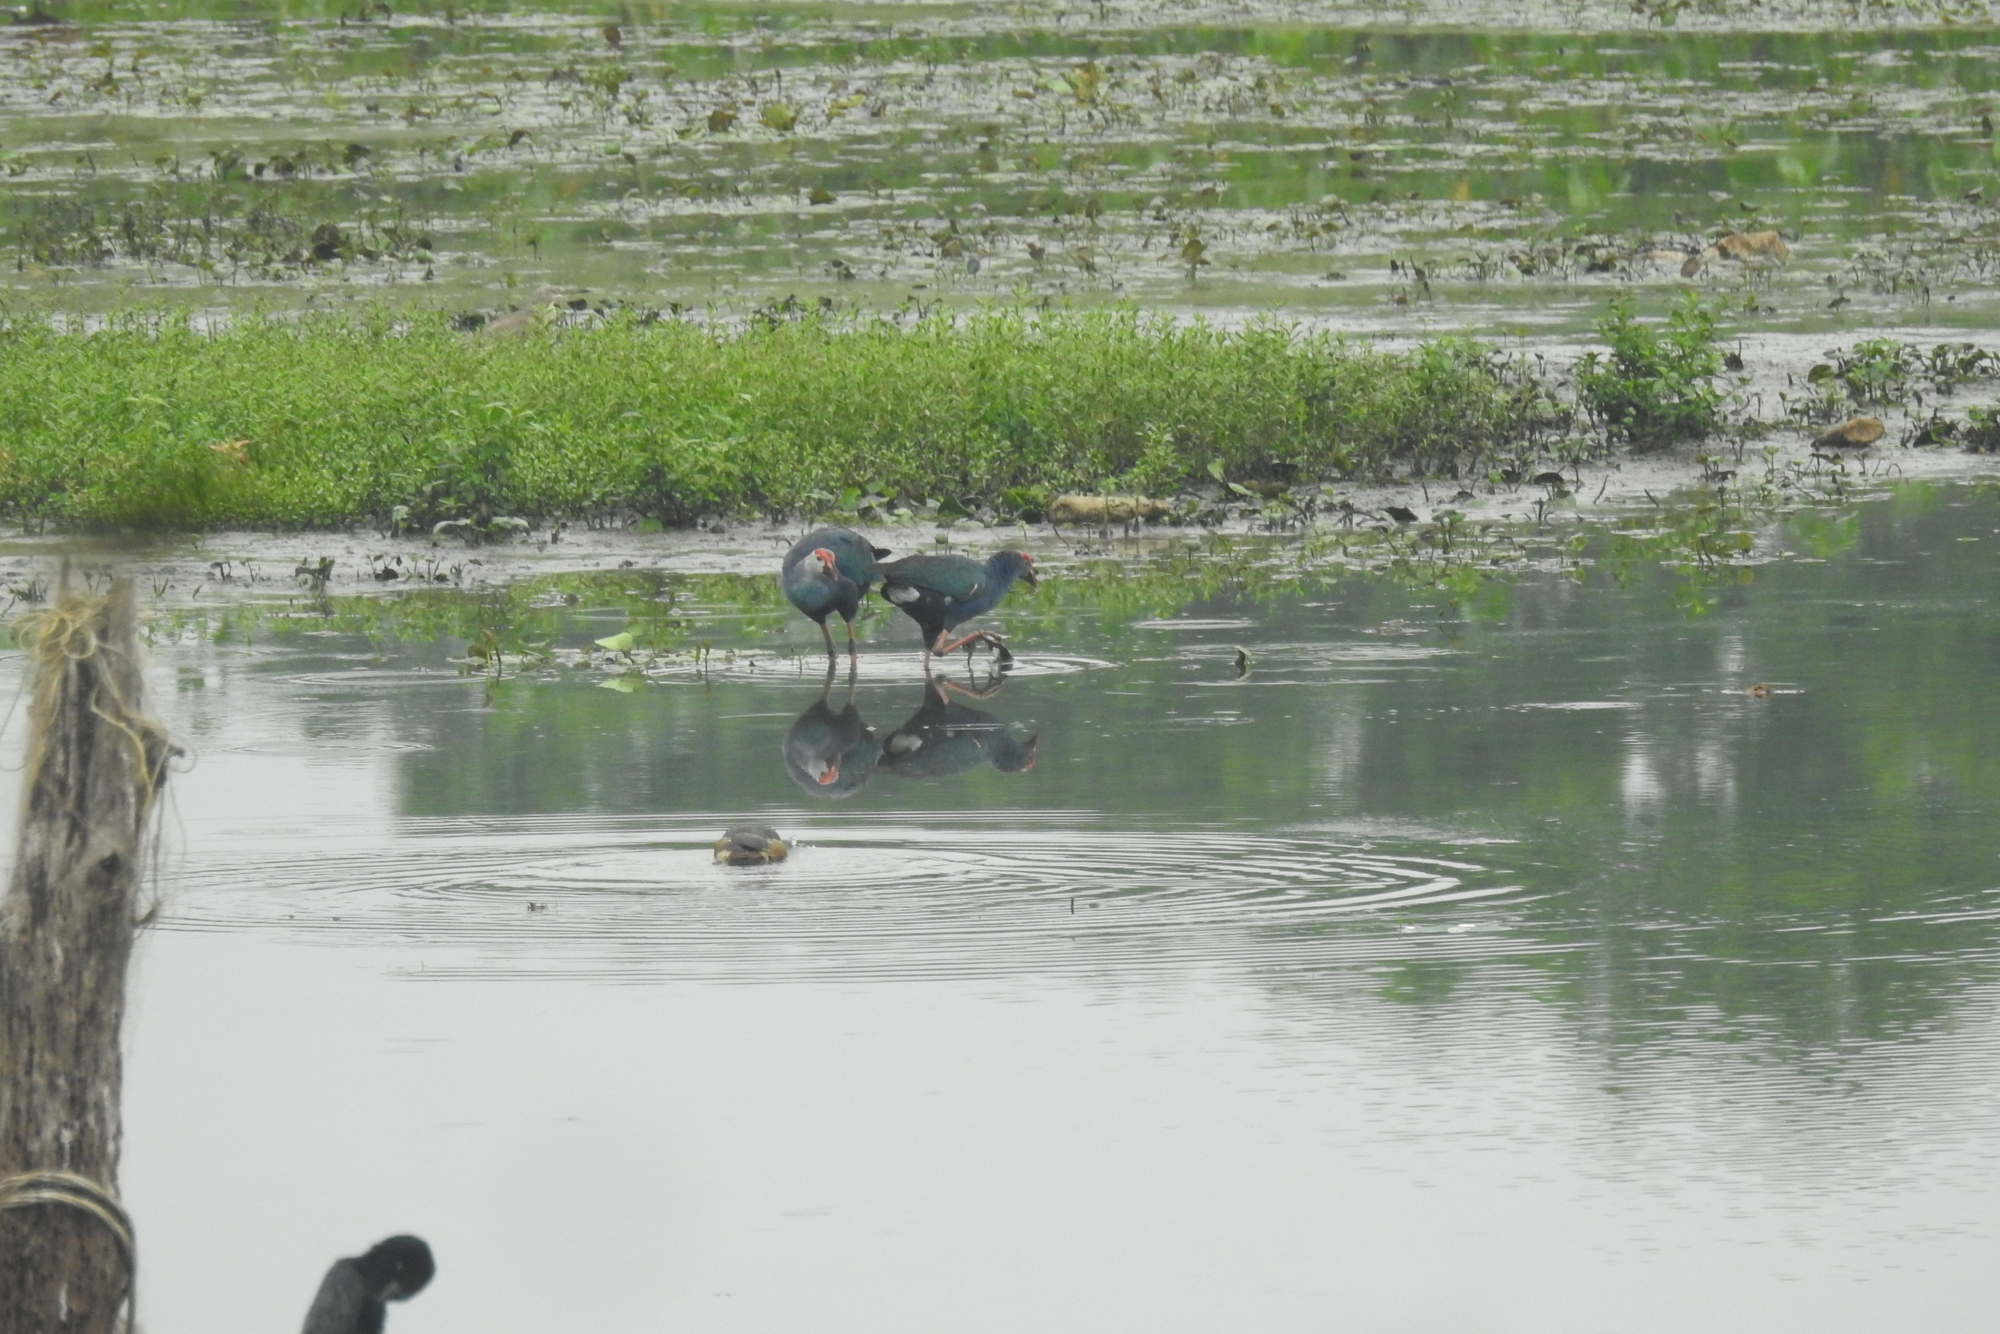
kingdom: Animalia
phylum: Chordata
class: Aves
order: Gruiformes
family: Rallidae
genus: Porphyrio
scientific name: Porphyrio porphyrio
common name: Purple swamphen
